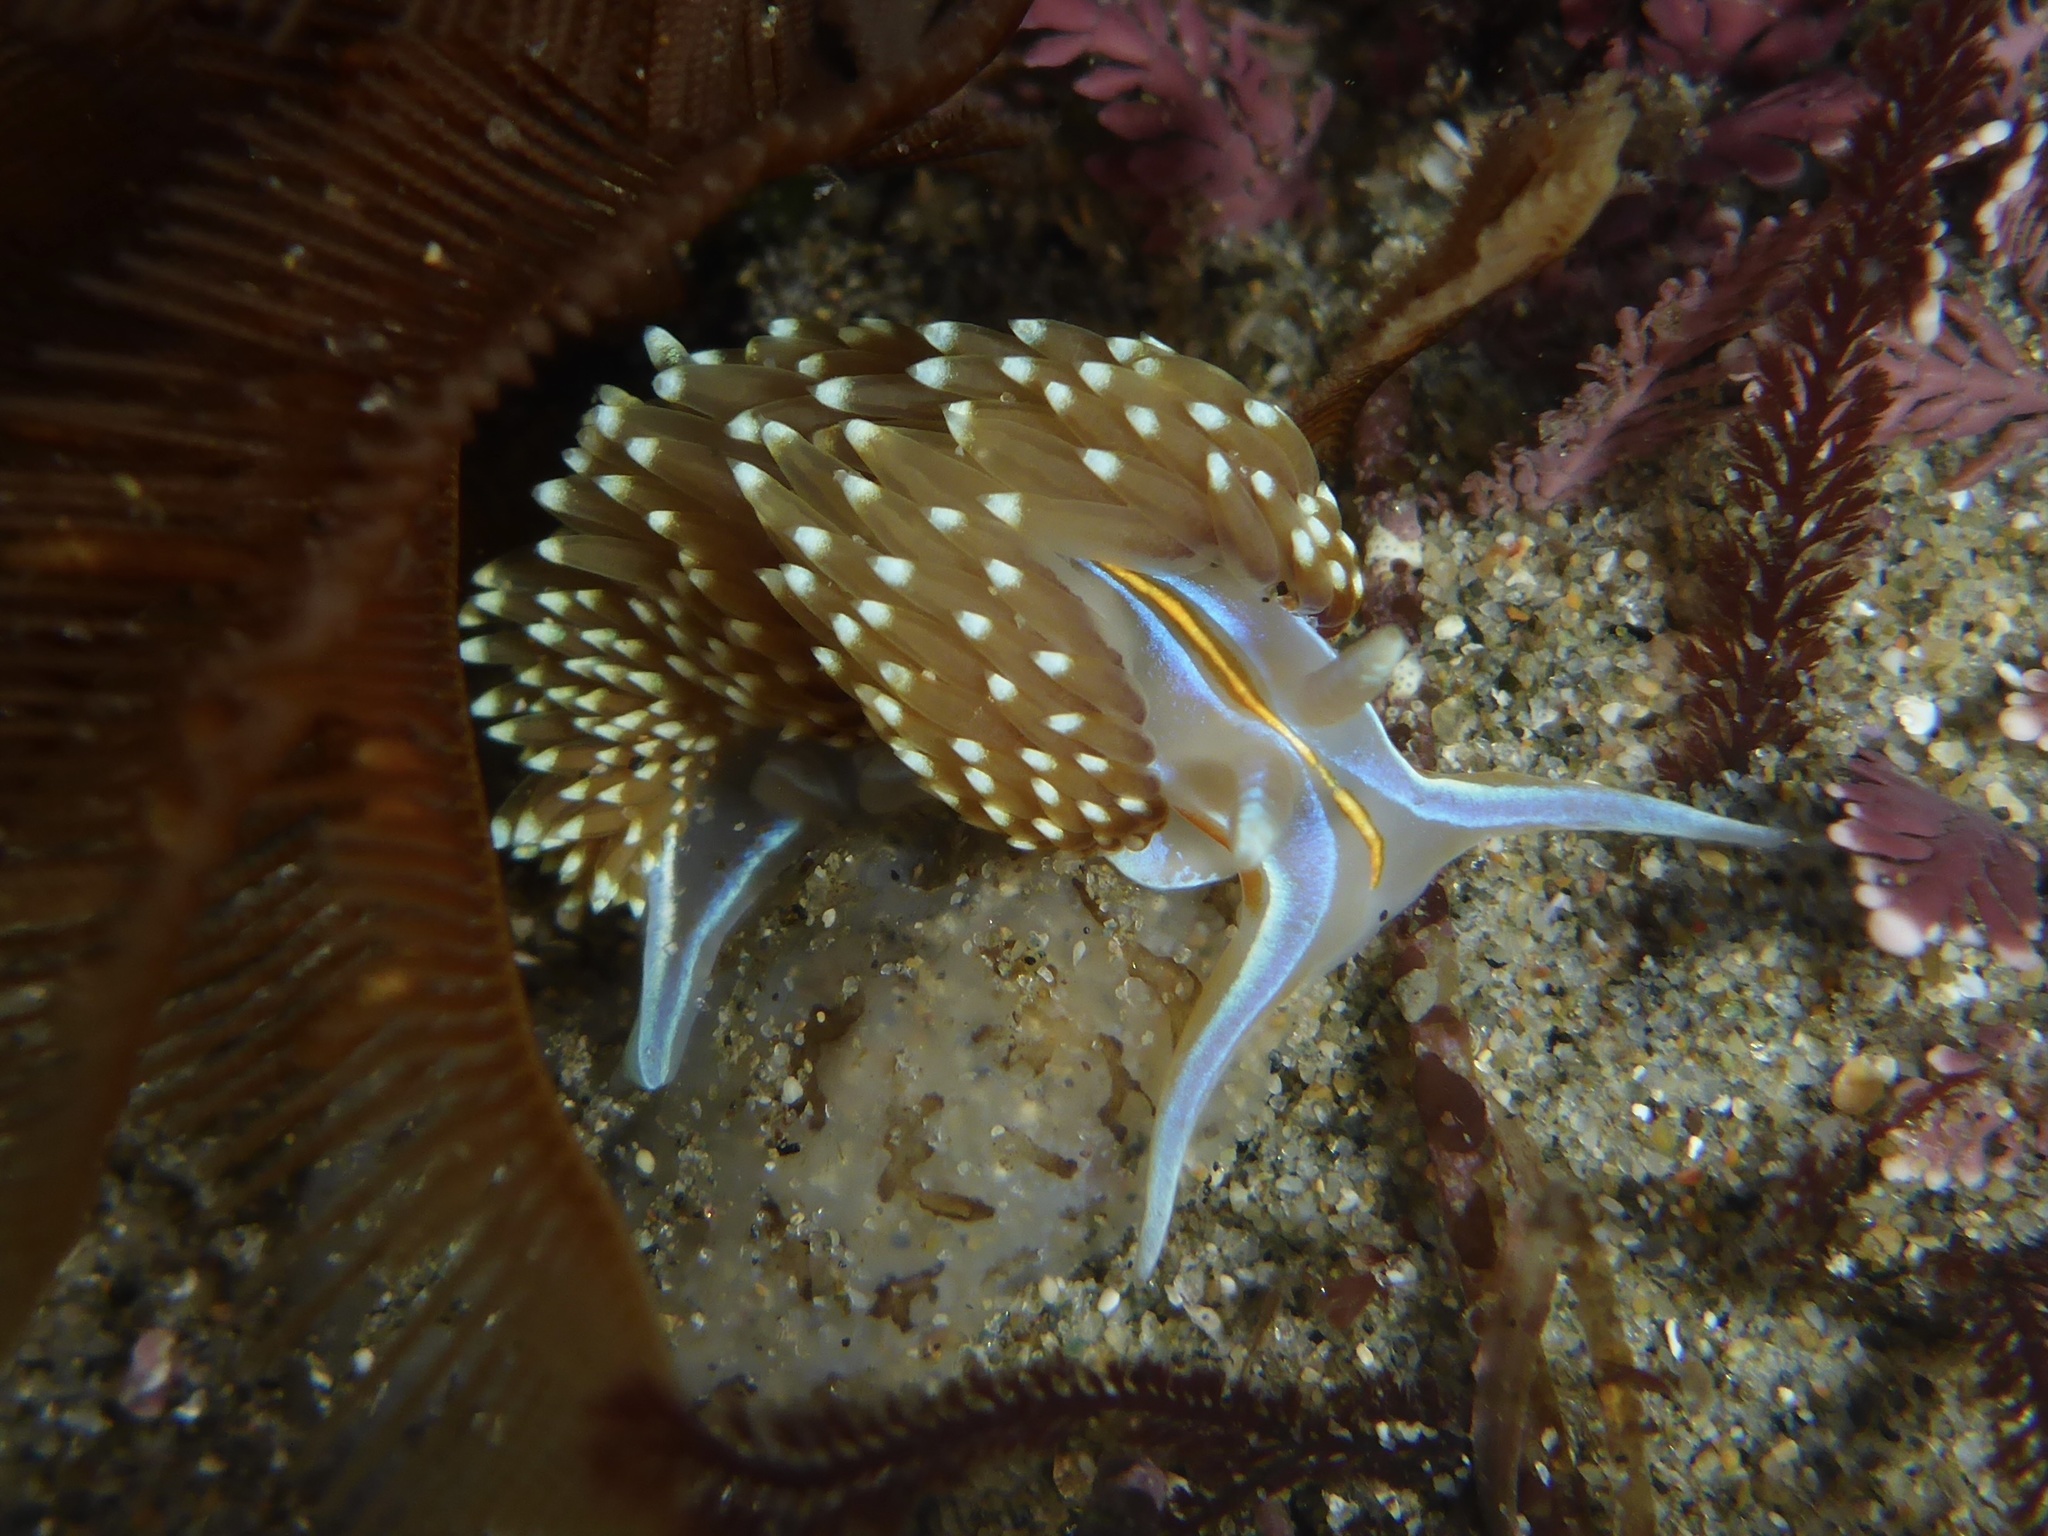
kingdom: Animalia
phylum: Mollusca
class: Gastropoda
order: Nudibranchia
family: Myrrhinidae
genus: Hermissenda
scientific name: Hermissenda opalescens
